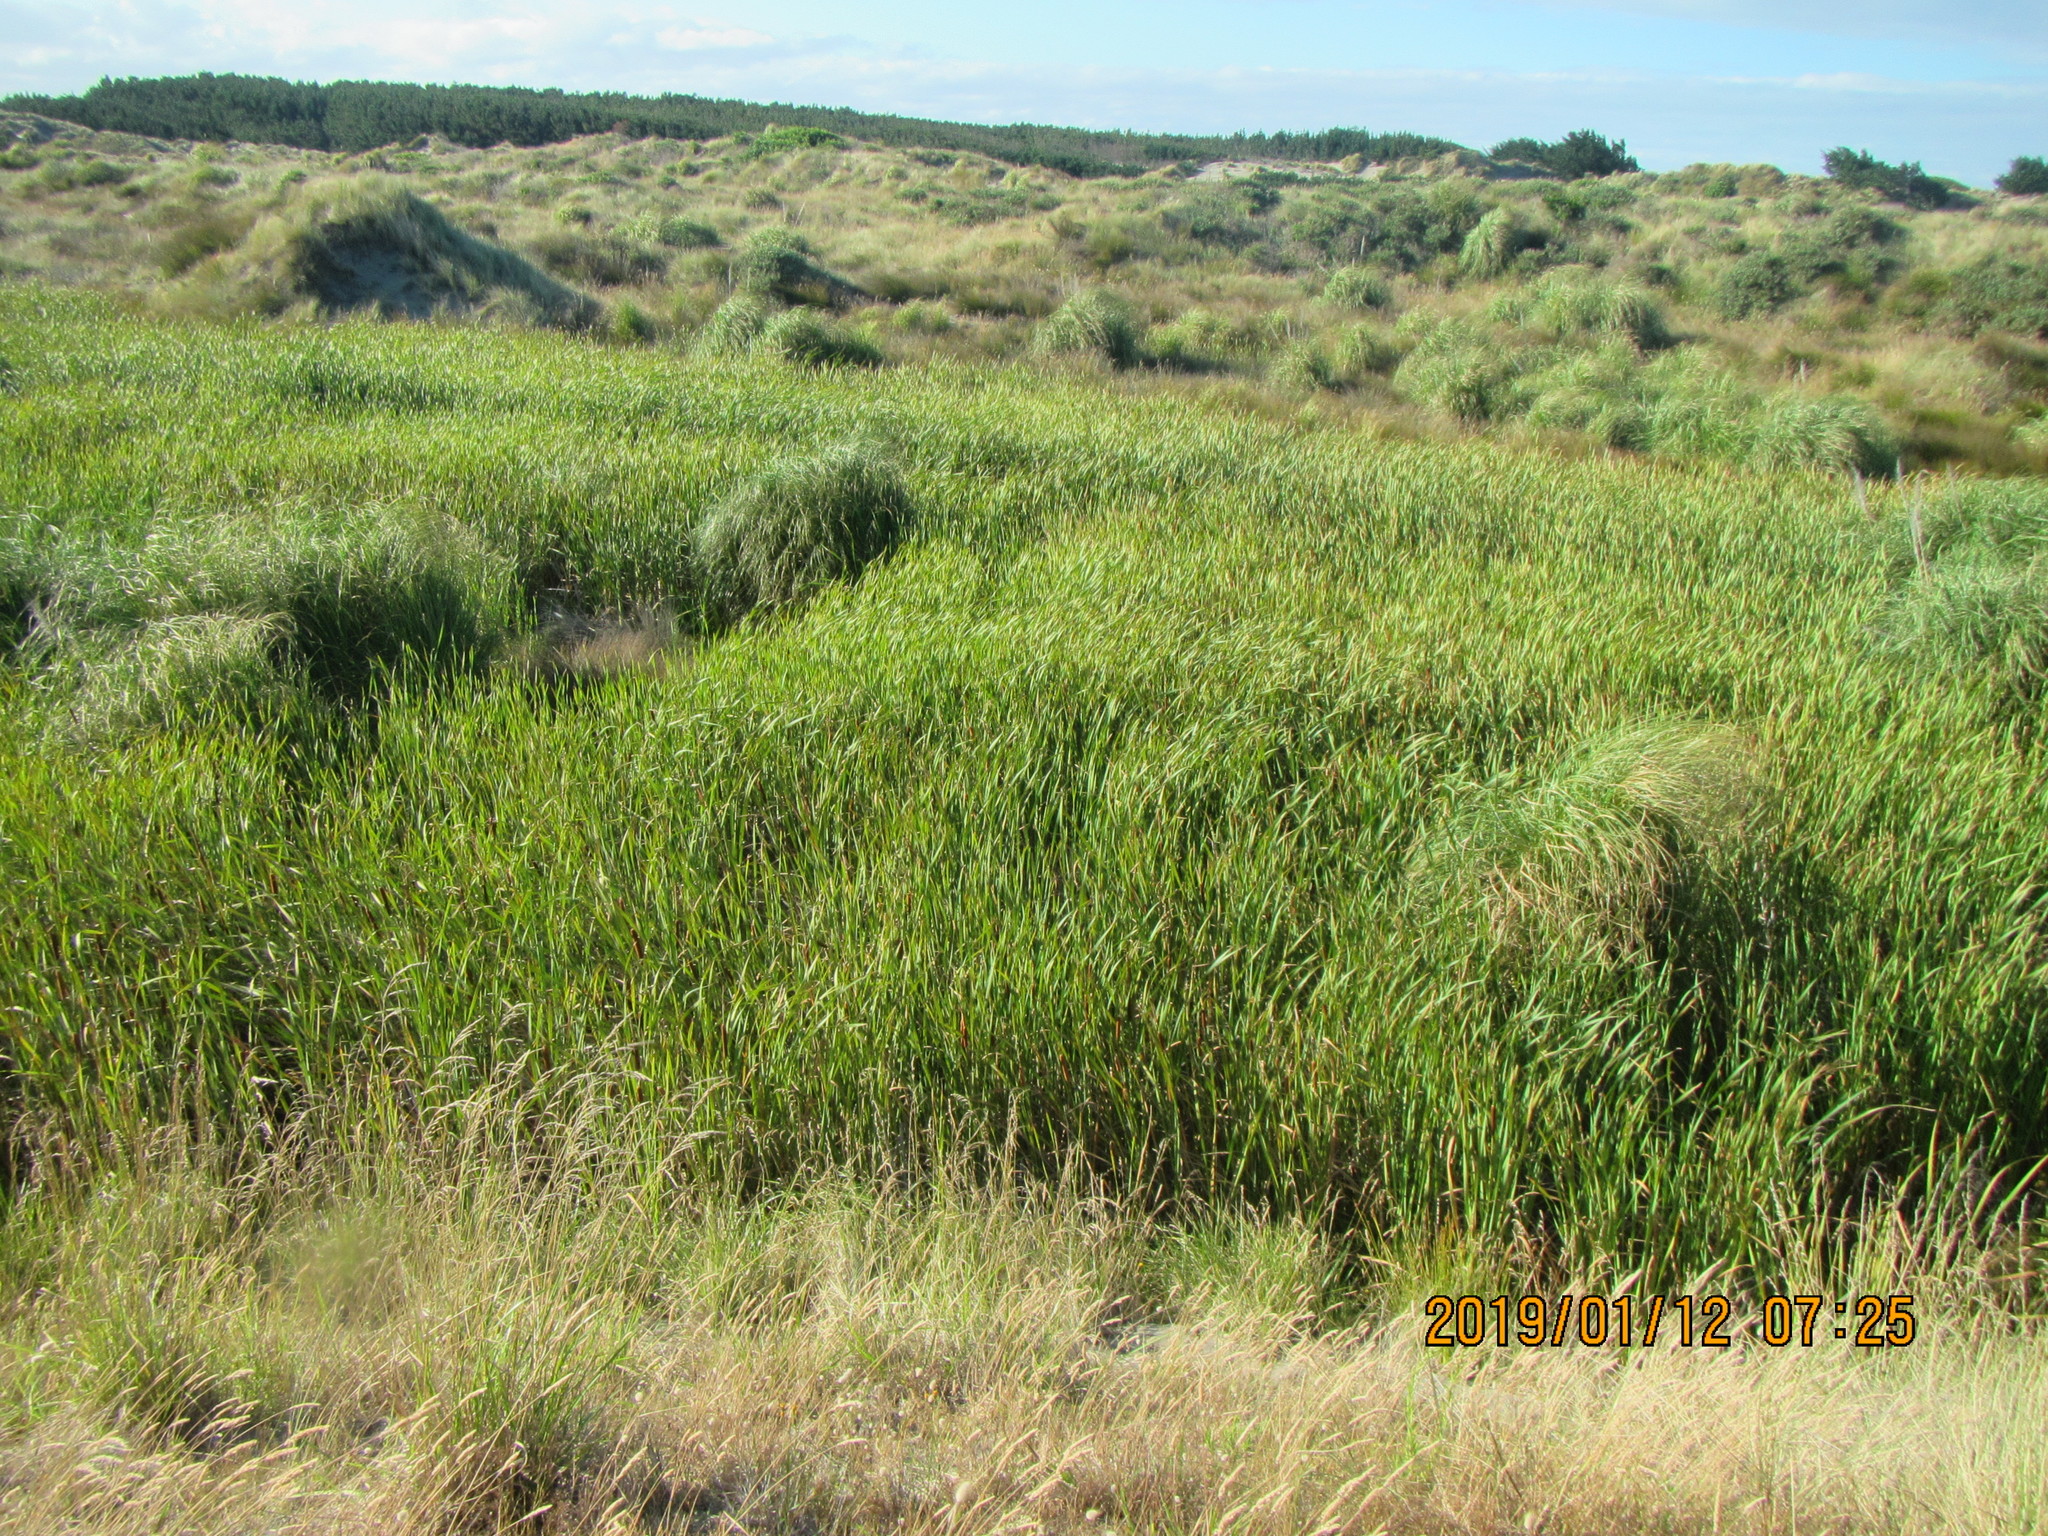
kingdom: Plantae
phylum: Tracheophyta
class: Liliopsida
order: Poales
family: Typhaceae
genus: Typha
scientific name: Typha orientalis
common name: Bullrush
